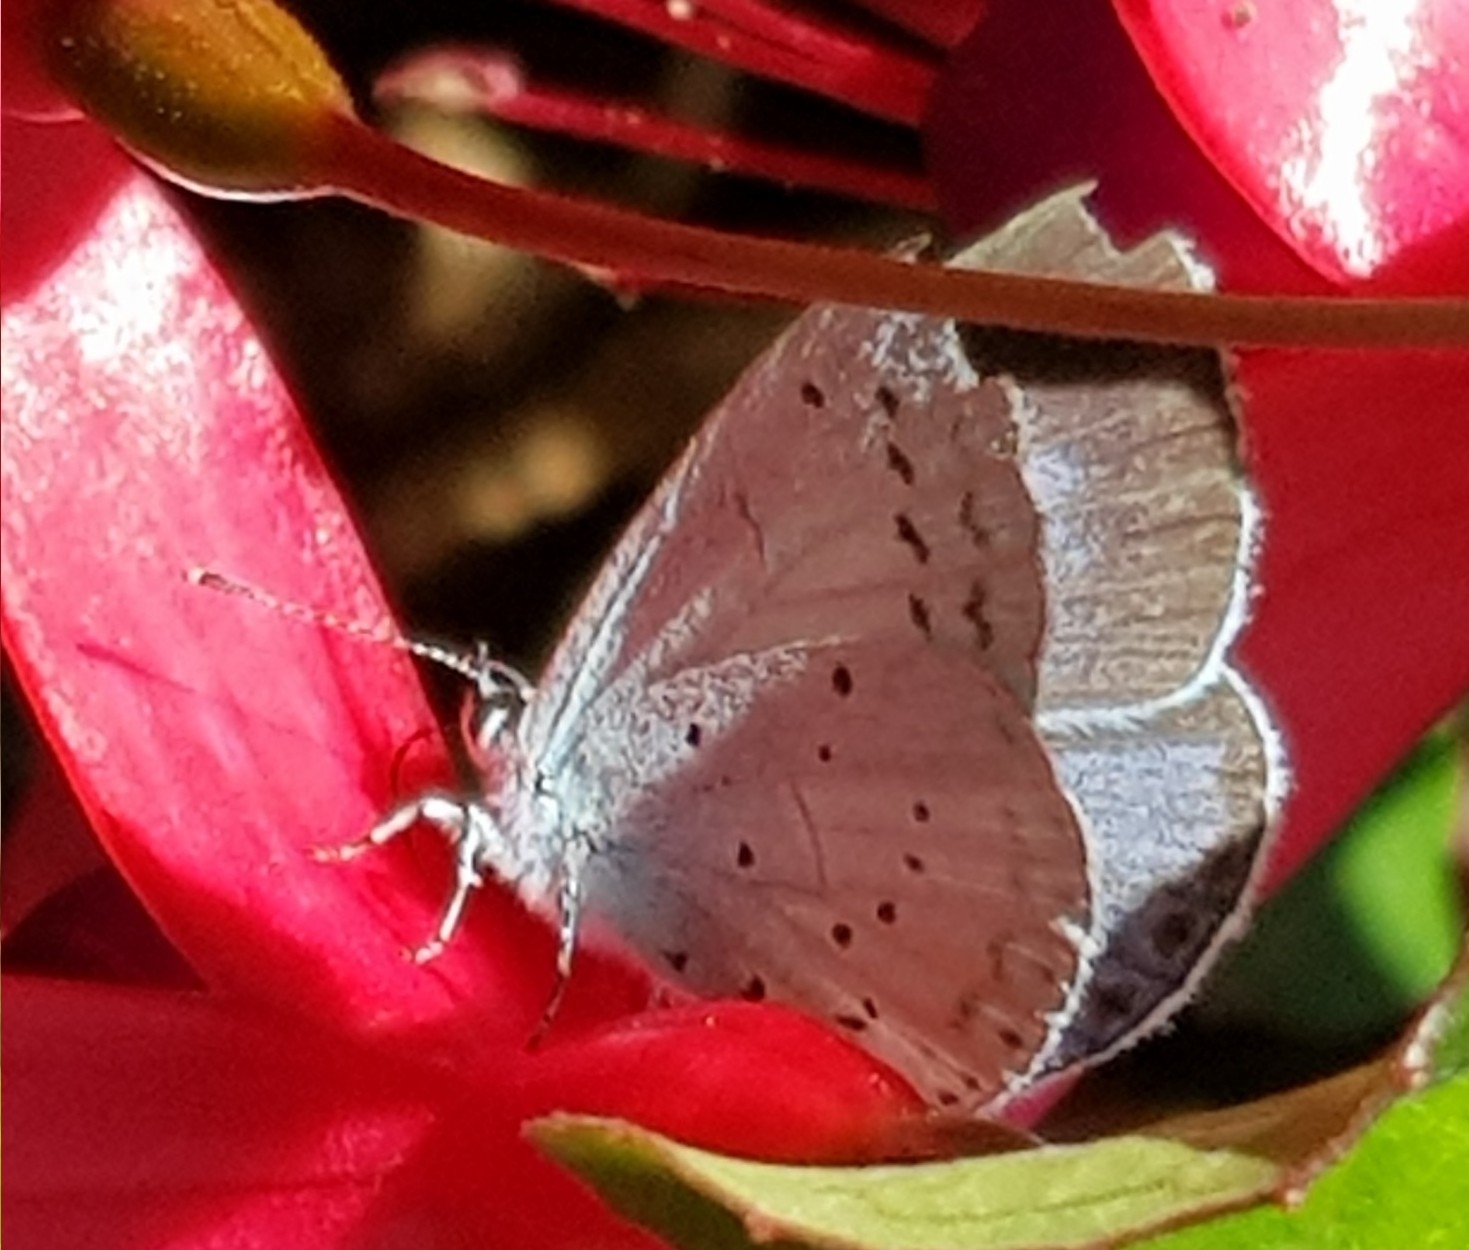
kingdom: Animalia
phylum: Arthropoda
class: Insecta
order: Lepidoptera
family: Lycaenidae
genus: Celastrina
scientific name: Celastrina argiolus
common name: Holly blue
